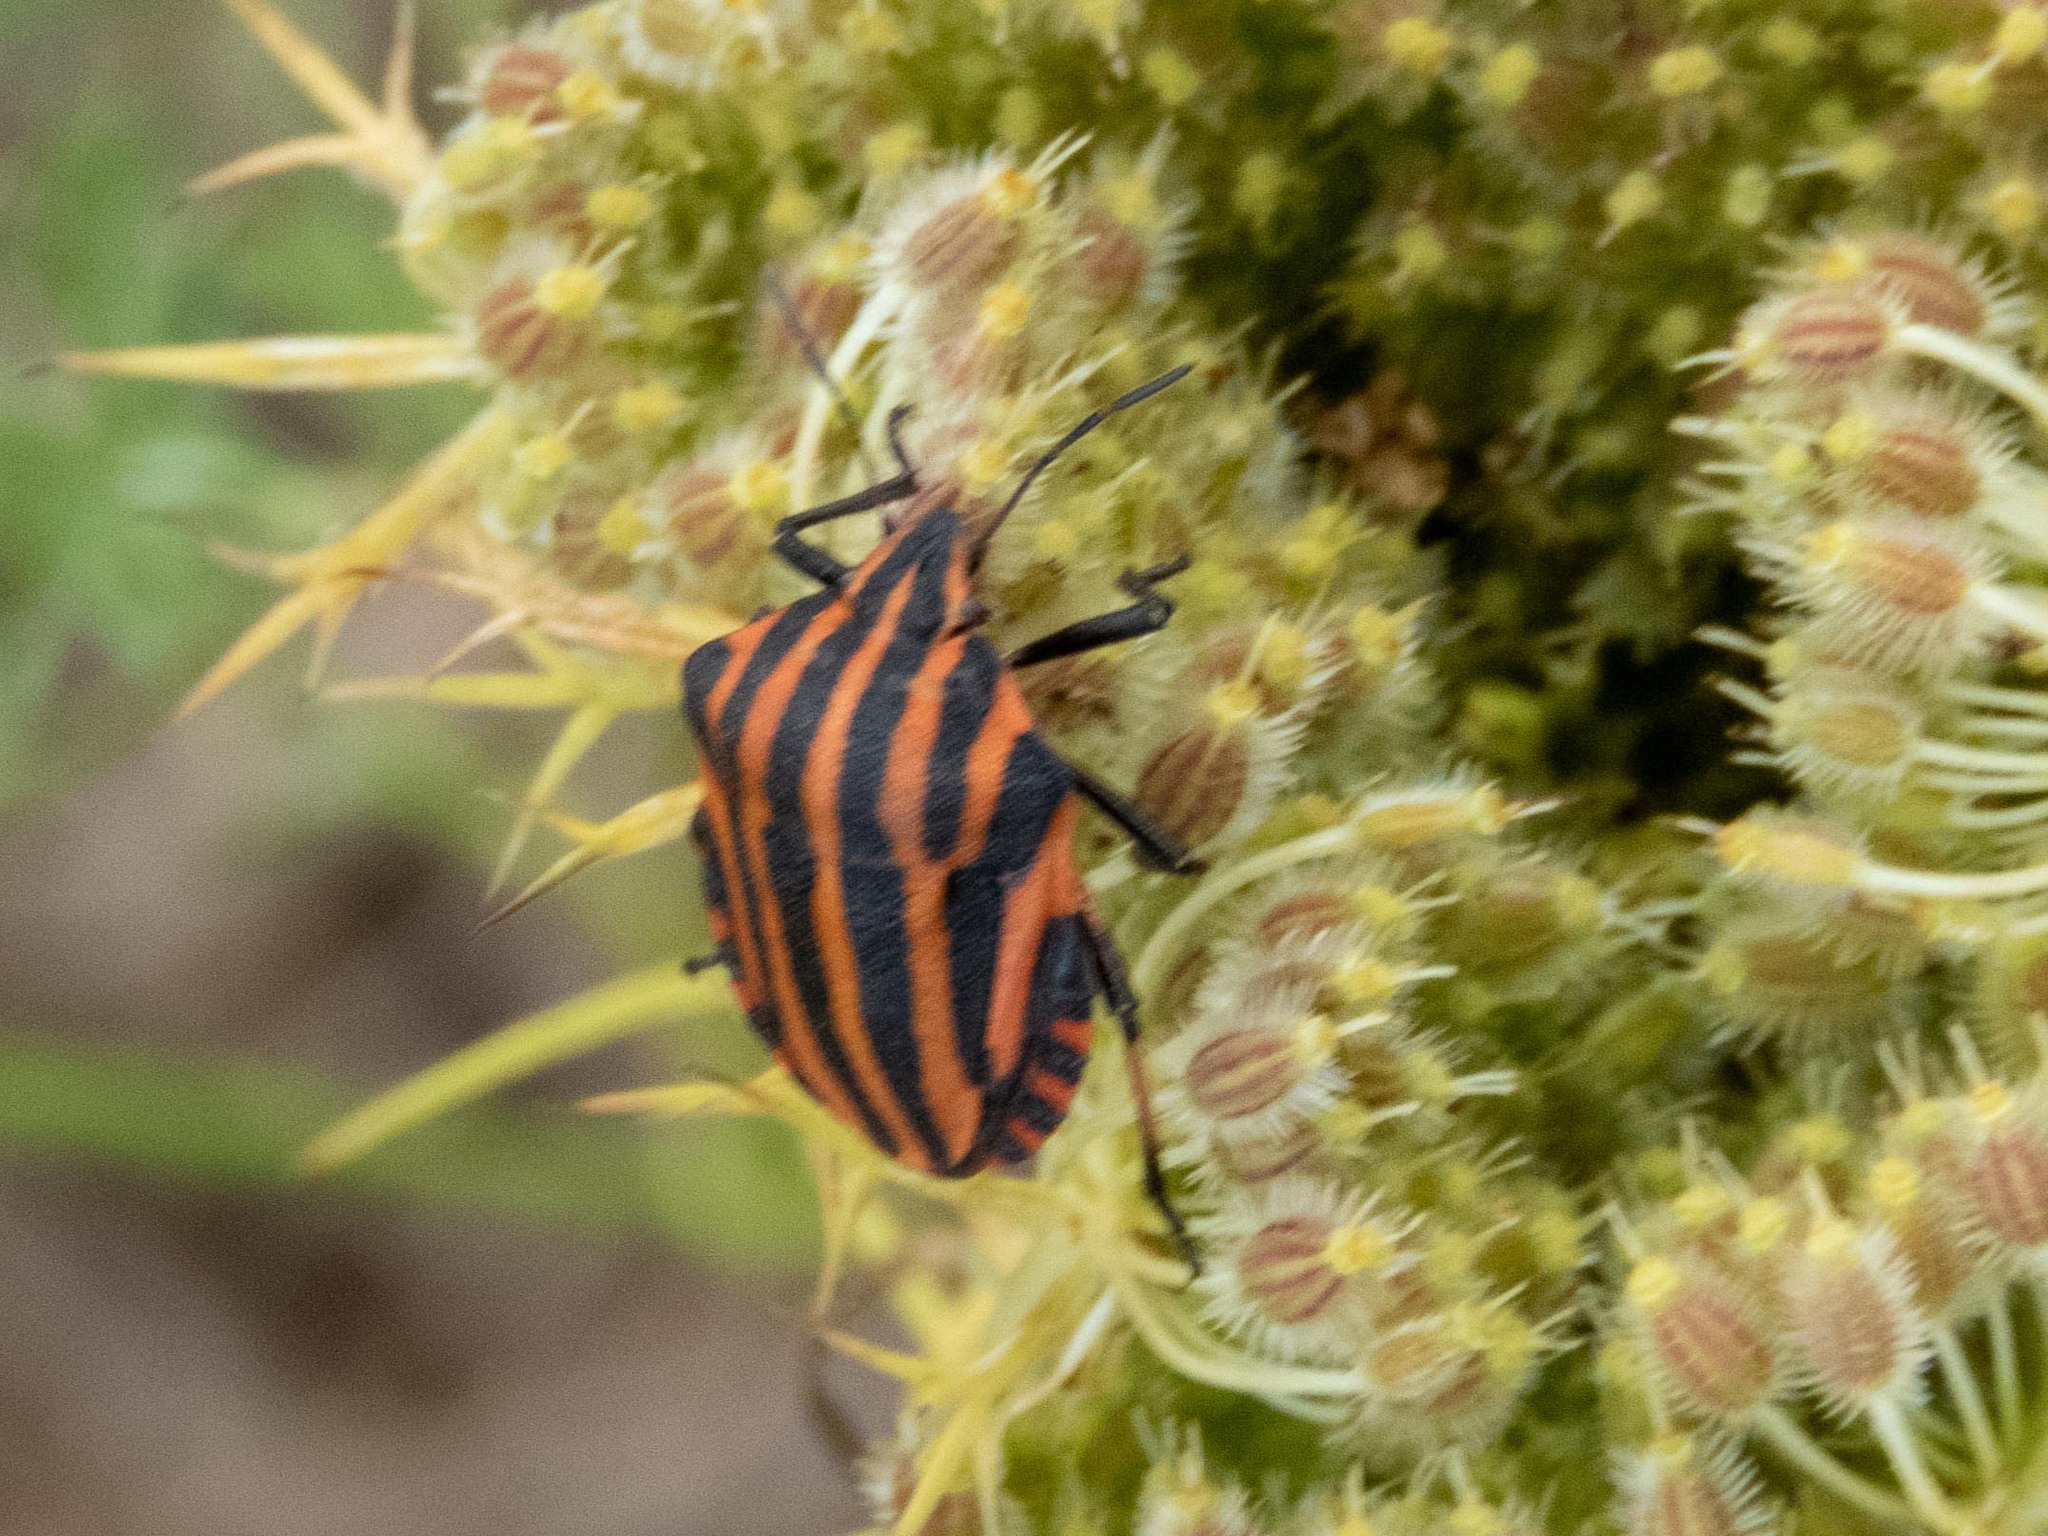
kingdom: Animalia
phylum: Arthropoda
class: Insecta
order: Hemiptera
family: Pentatomidae
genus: Graphosoma
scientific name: Graphosoma italicum
